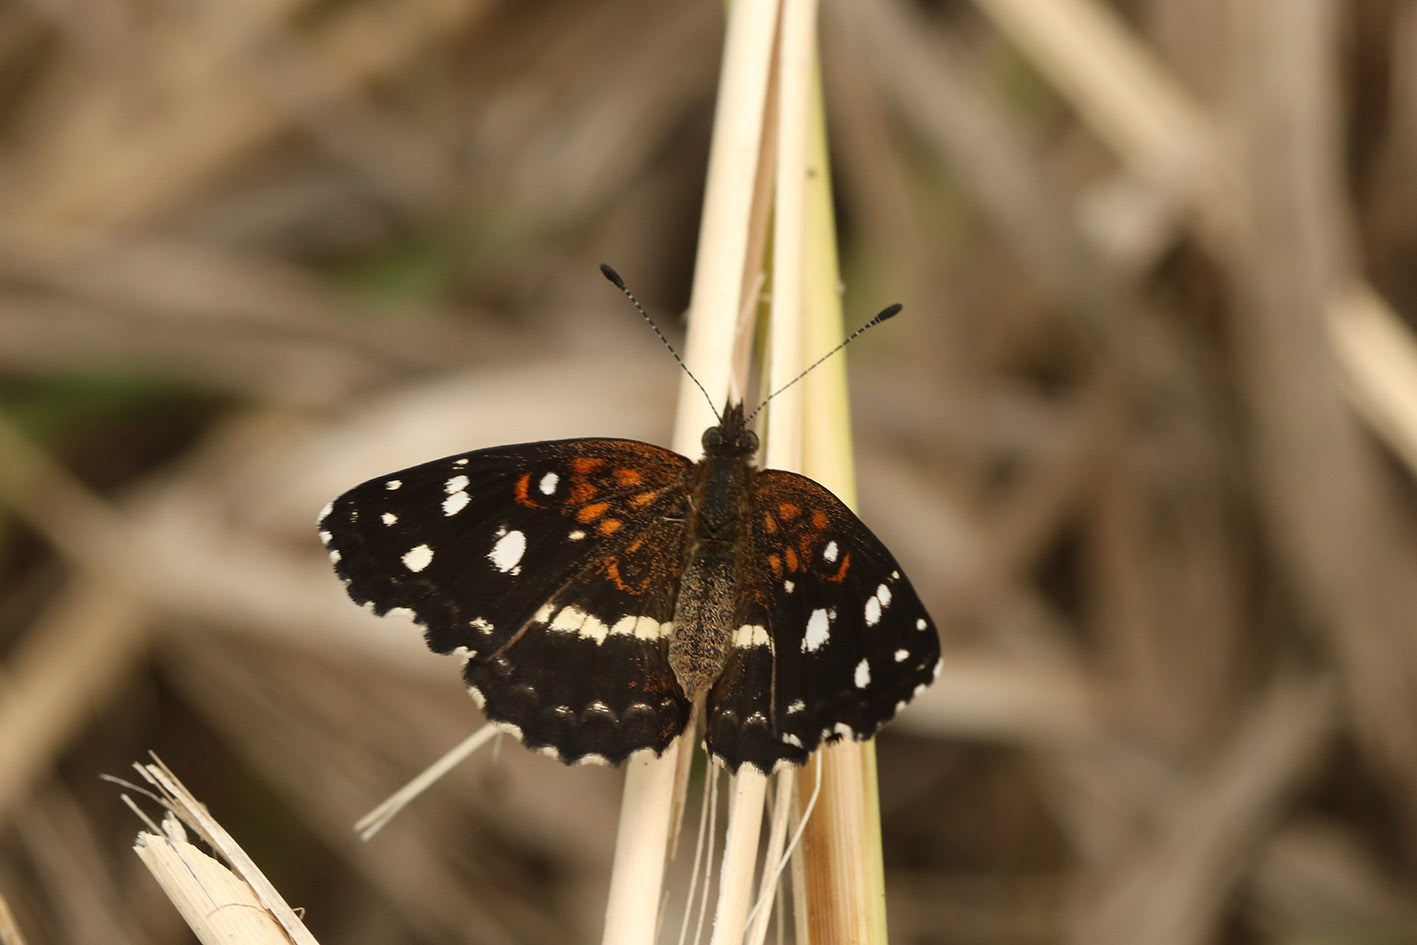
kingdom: Animalia
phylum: Arthropoda
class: Insecta
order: Lepidoptera
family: Nymphalidae
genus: Ortilia
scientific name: Ortilia ithra
